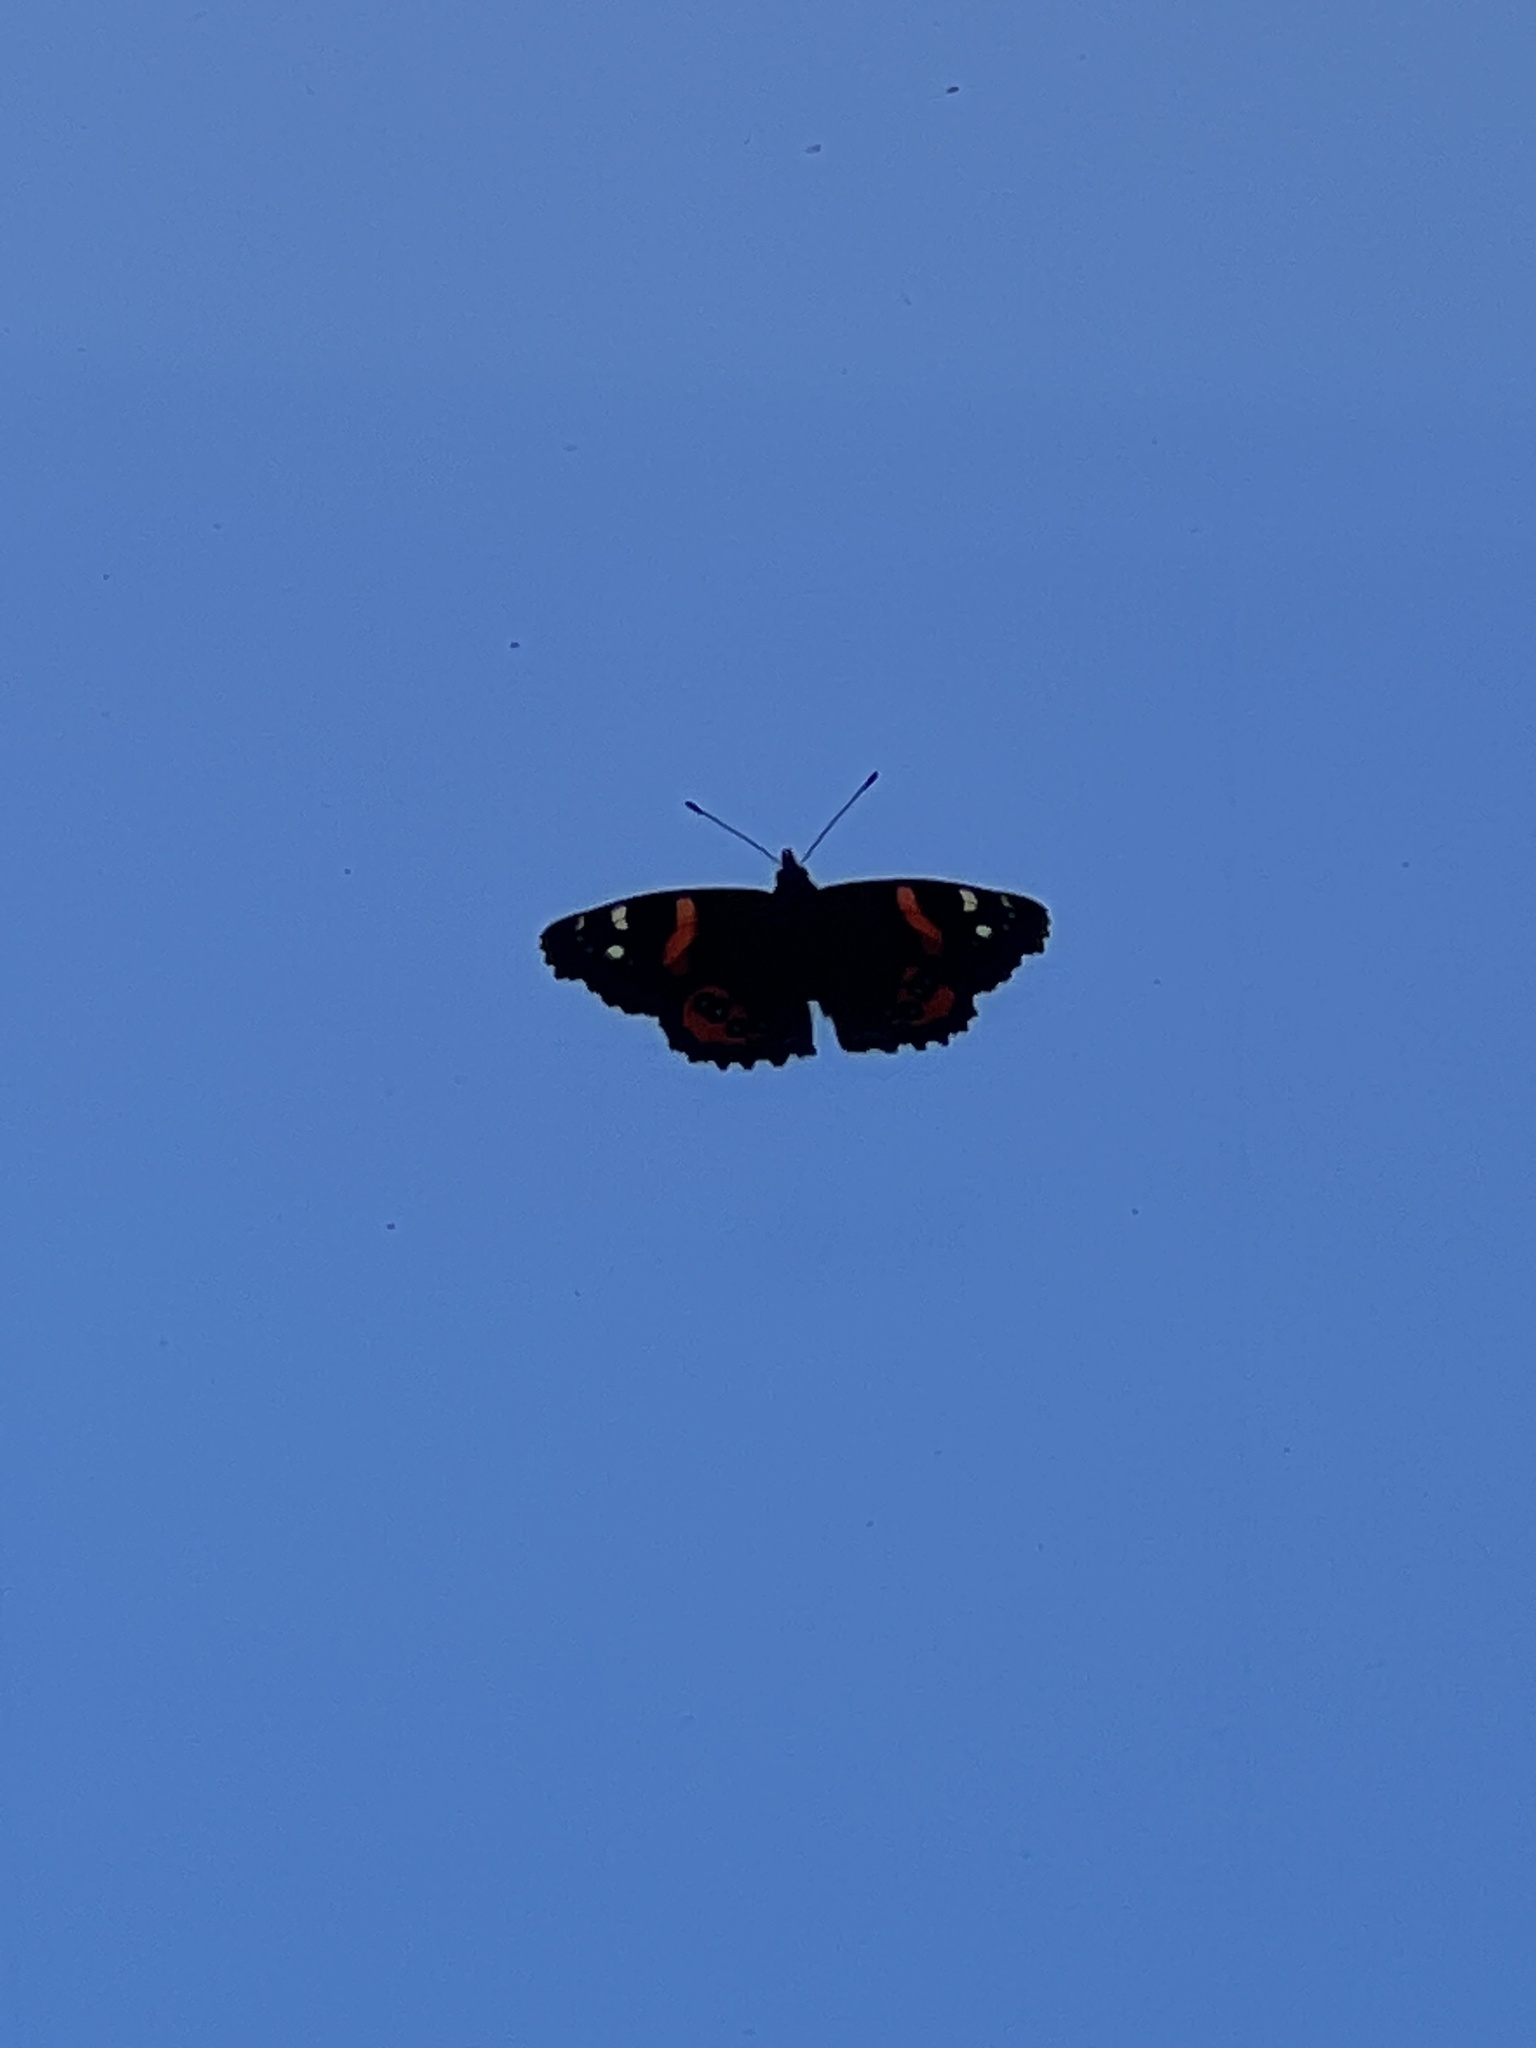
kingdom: Animalia
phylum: Arthropoda
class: Insecta
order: Lepidoptera
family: Nymphalidae
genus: Vanessa
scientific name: Vanessa gonerilla
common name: New zealand red admiral
